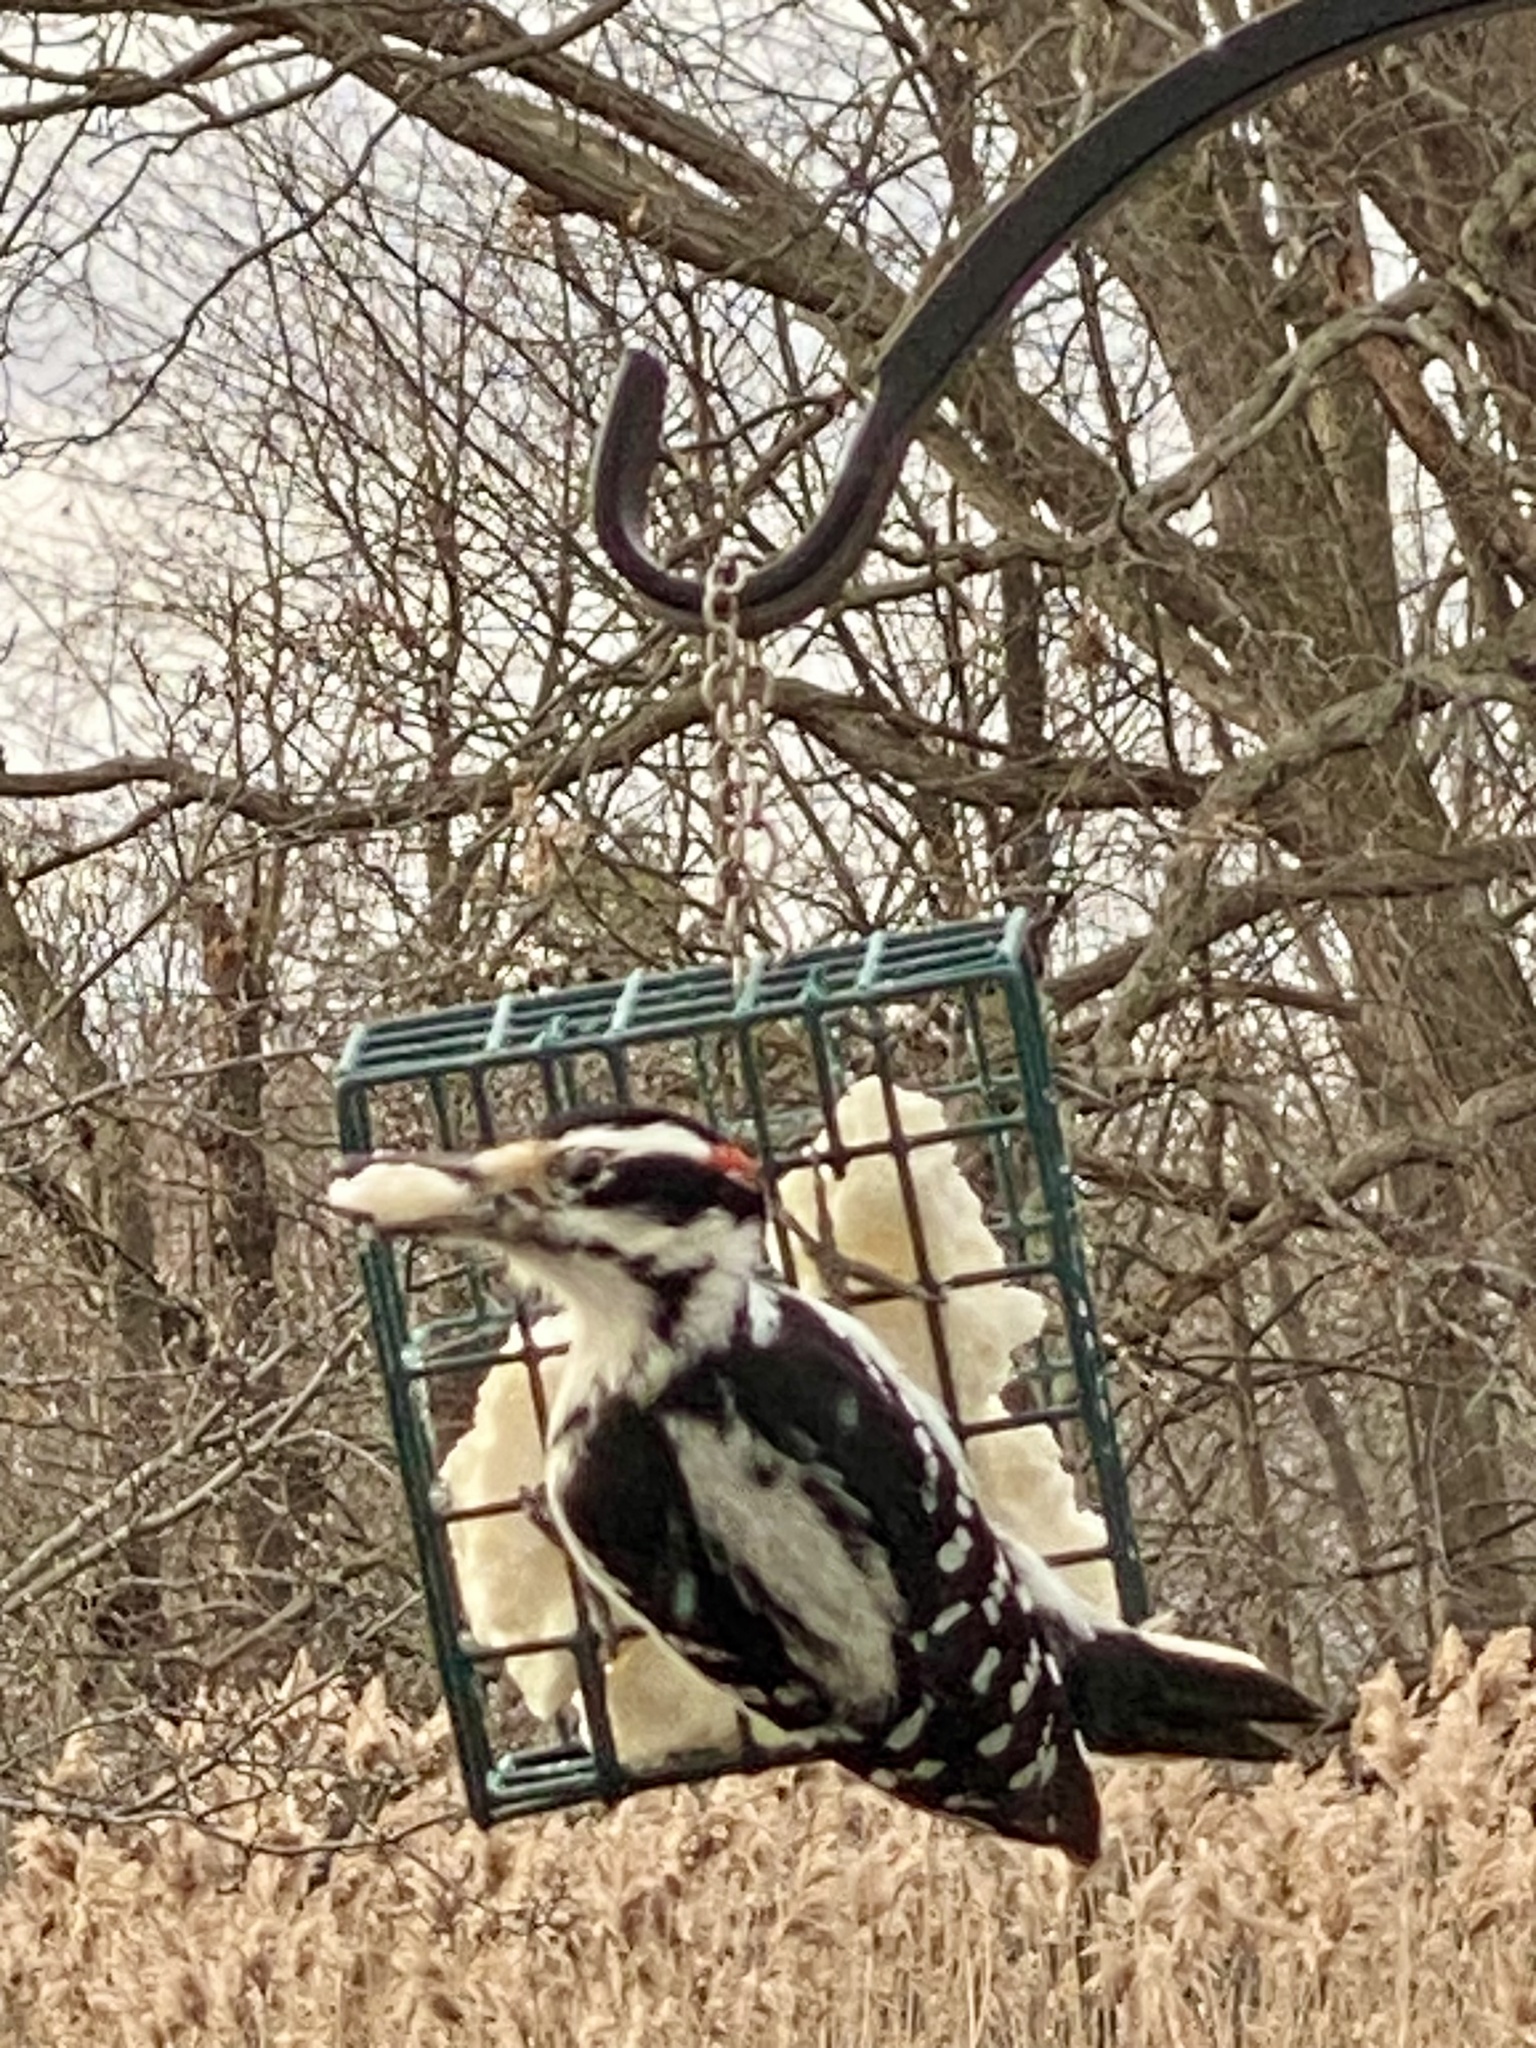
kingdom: Animalia
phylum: Chordata
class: Aves
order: Piciformes
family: Picidae
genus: Leuconotopicus
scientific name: Leuconotopicus villosus
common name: Hairy woodpecker
